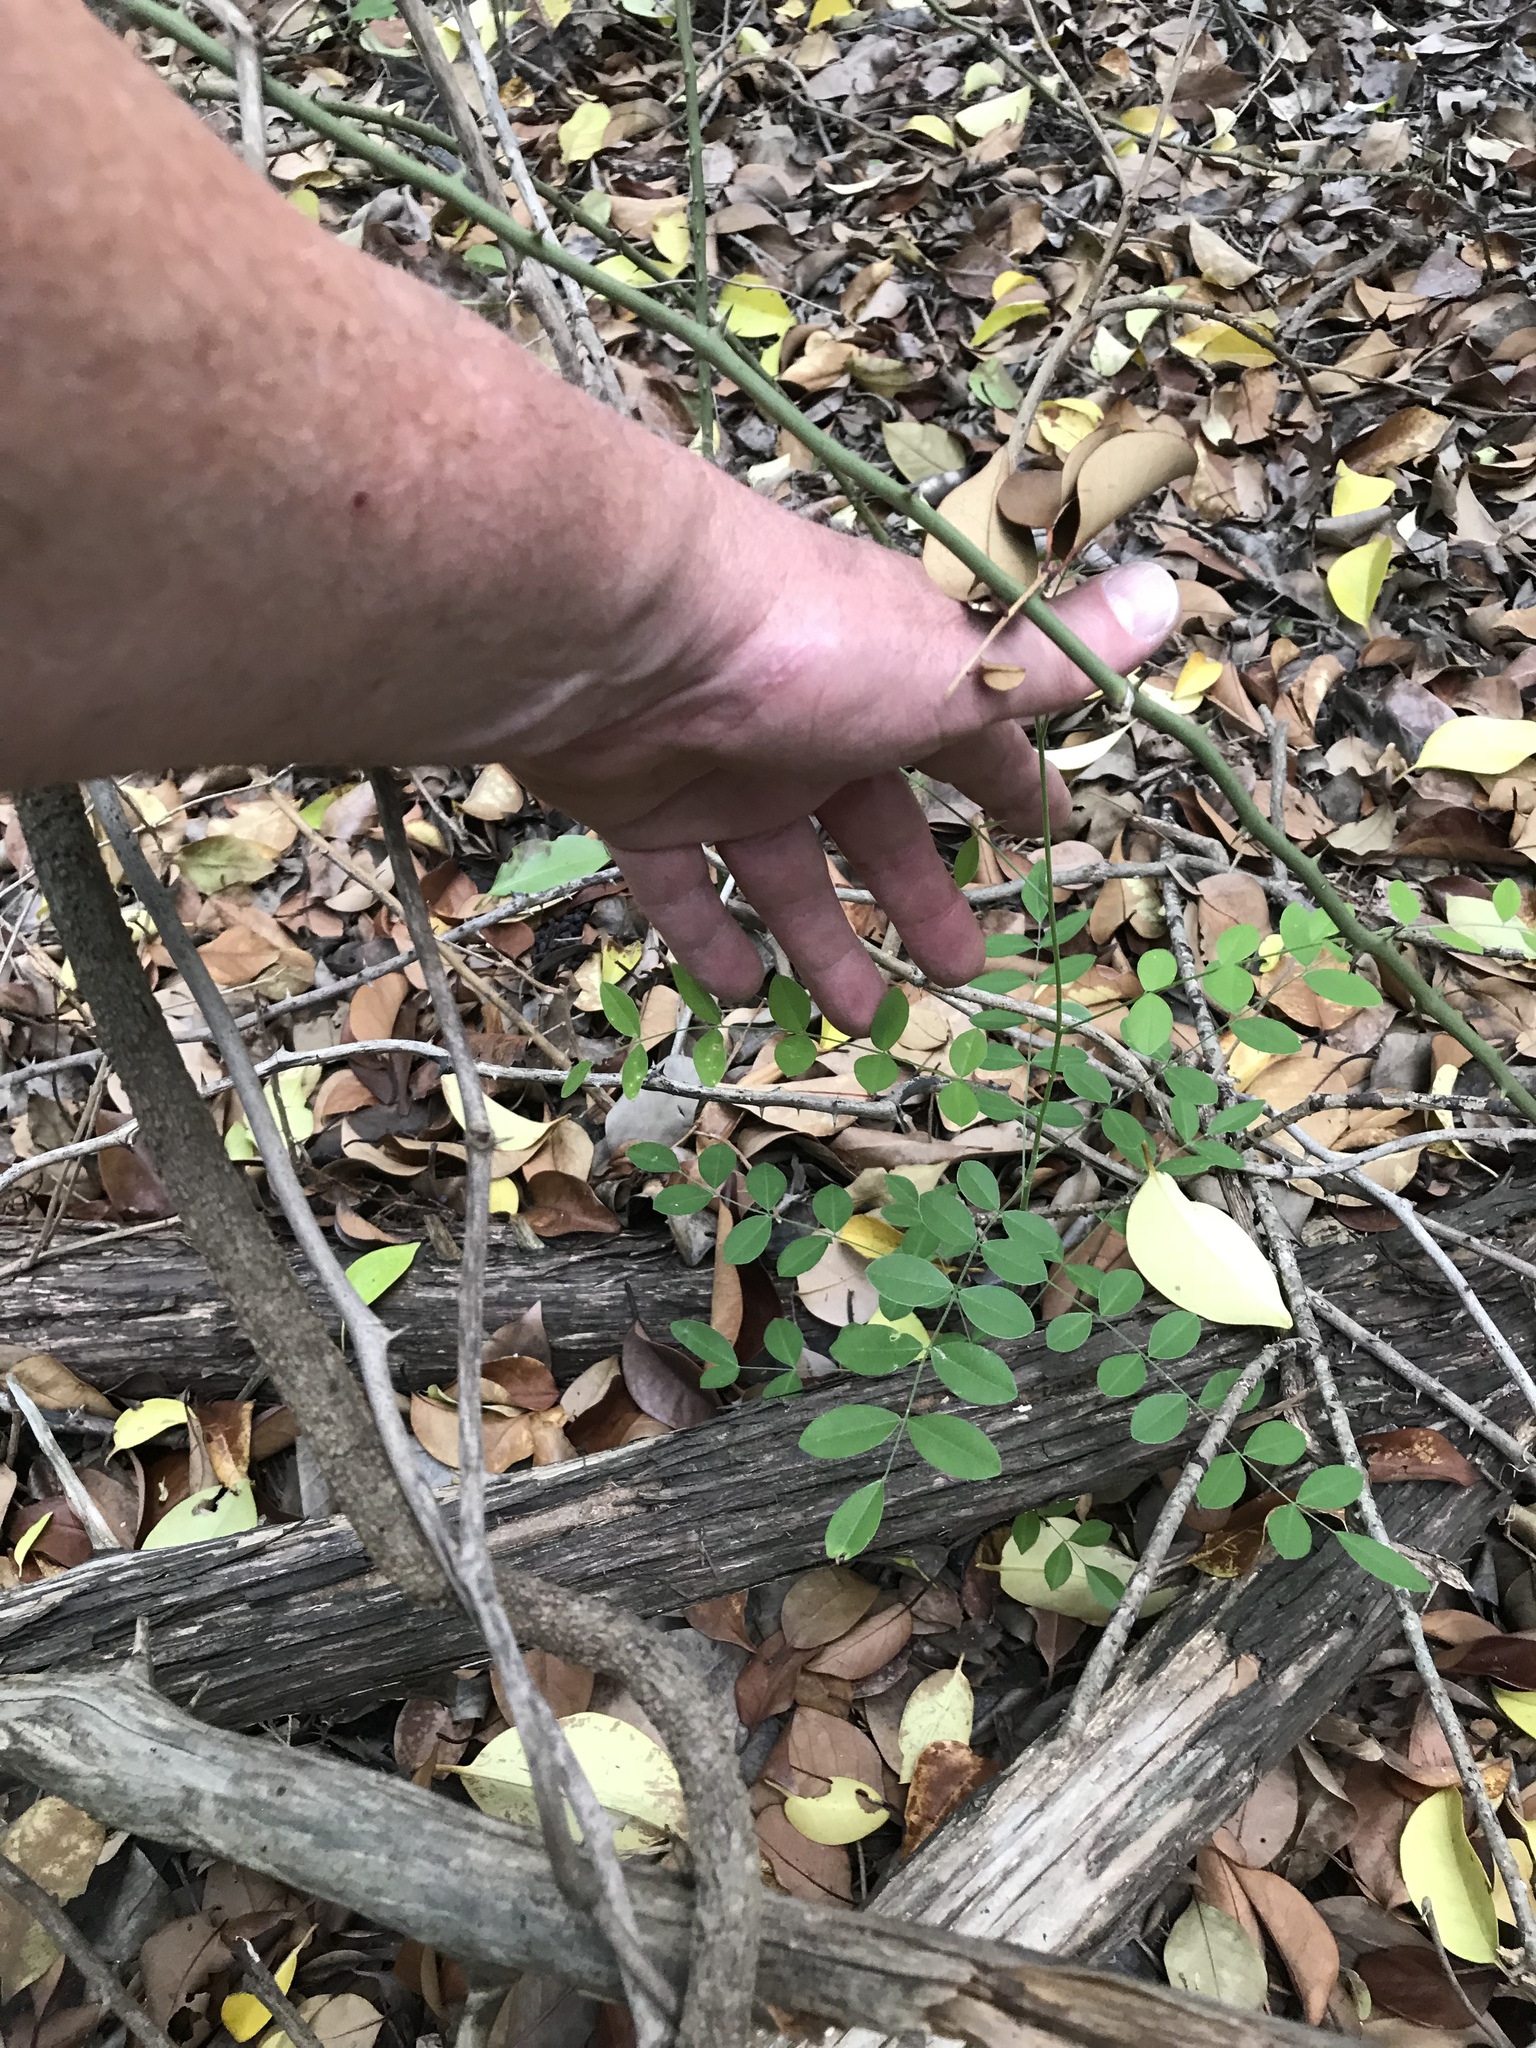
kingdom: Plantae
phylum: Tracheophyta
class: Magnoliopsida
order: Fabales
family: Fabaceae
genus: Styphnolobium
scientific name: Styphnolobium affine
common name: Texas sophora
